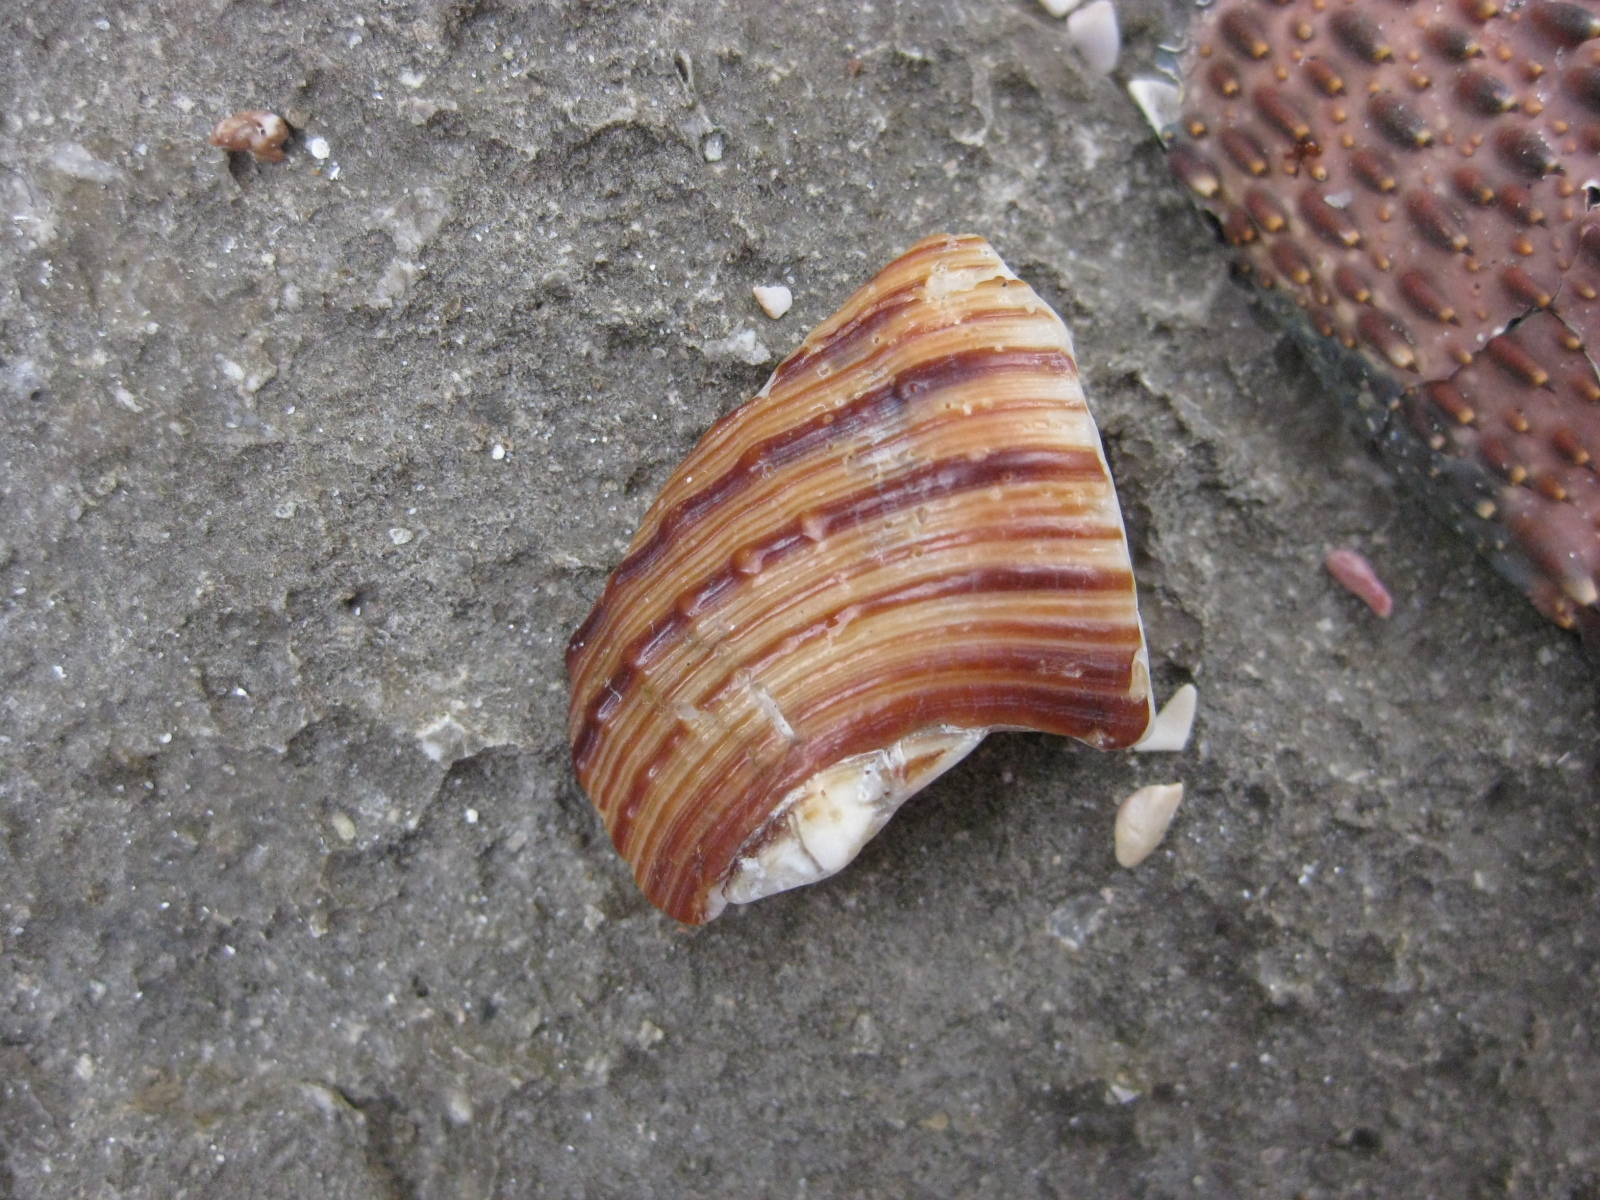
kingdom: Animalia
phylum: Mollusca
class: Gastropoda
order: Littorinimorpha
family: Cymatiidae
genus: Argobuccinum
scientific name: Argobuccinum pustulosum
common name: Pustular triton
